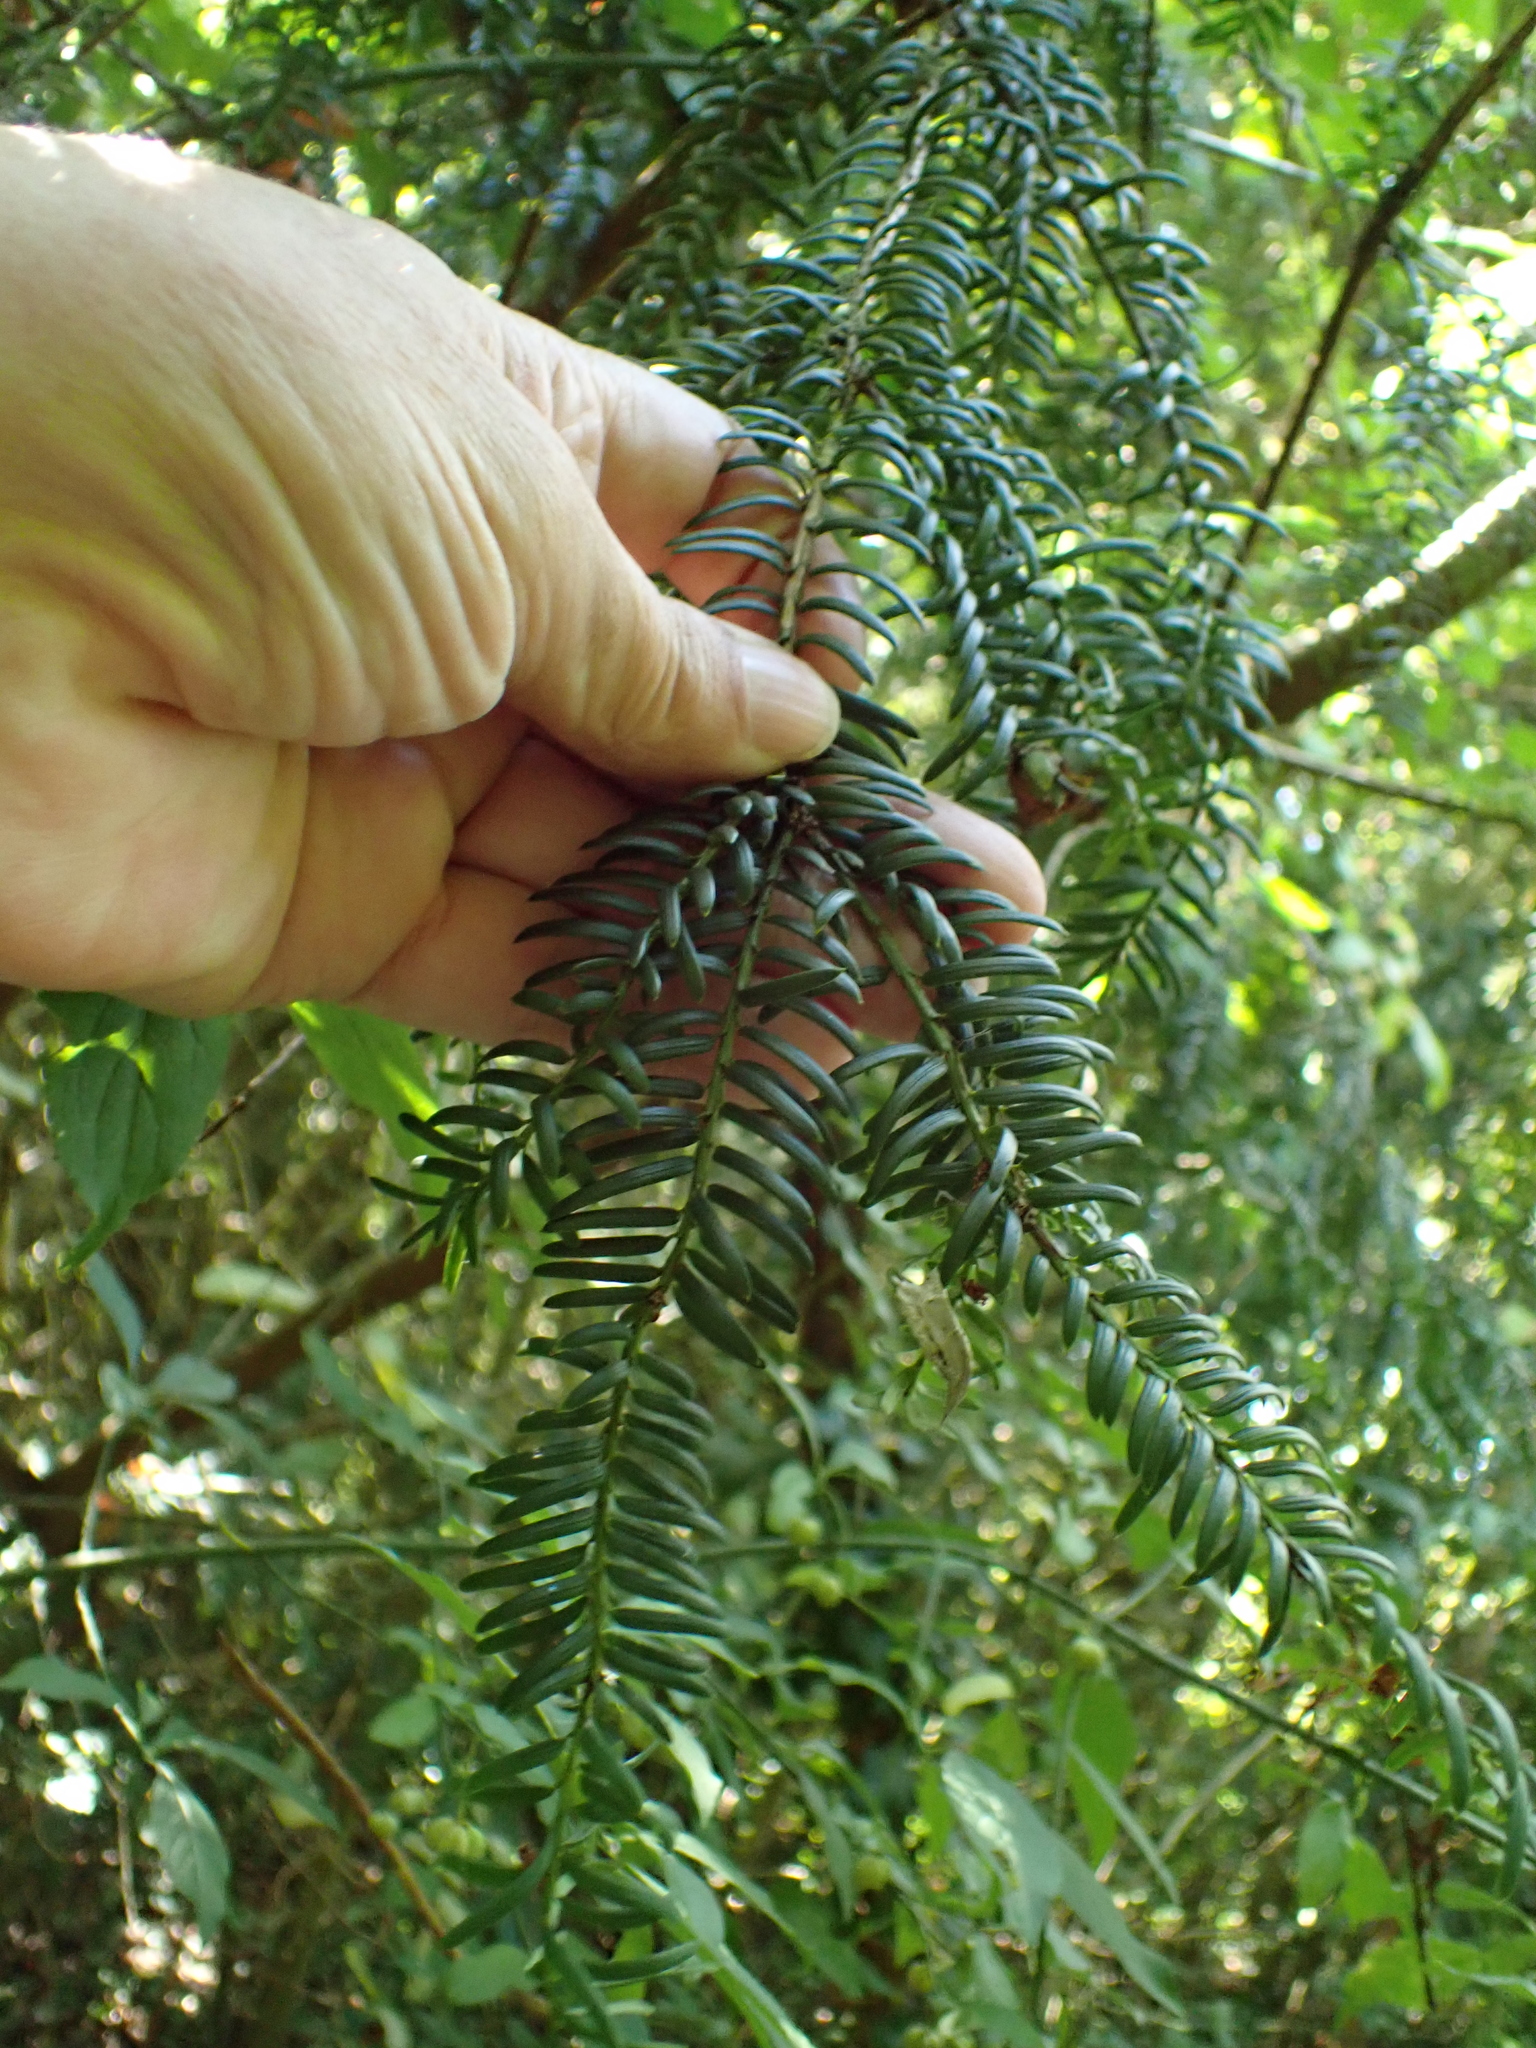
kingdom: Plantae
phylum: Tracheophyta
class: Pinopsida
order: Pinales
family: Taxaceae
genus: Taxus
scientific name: Taxus baccata
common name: Yew
